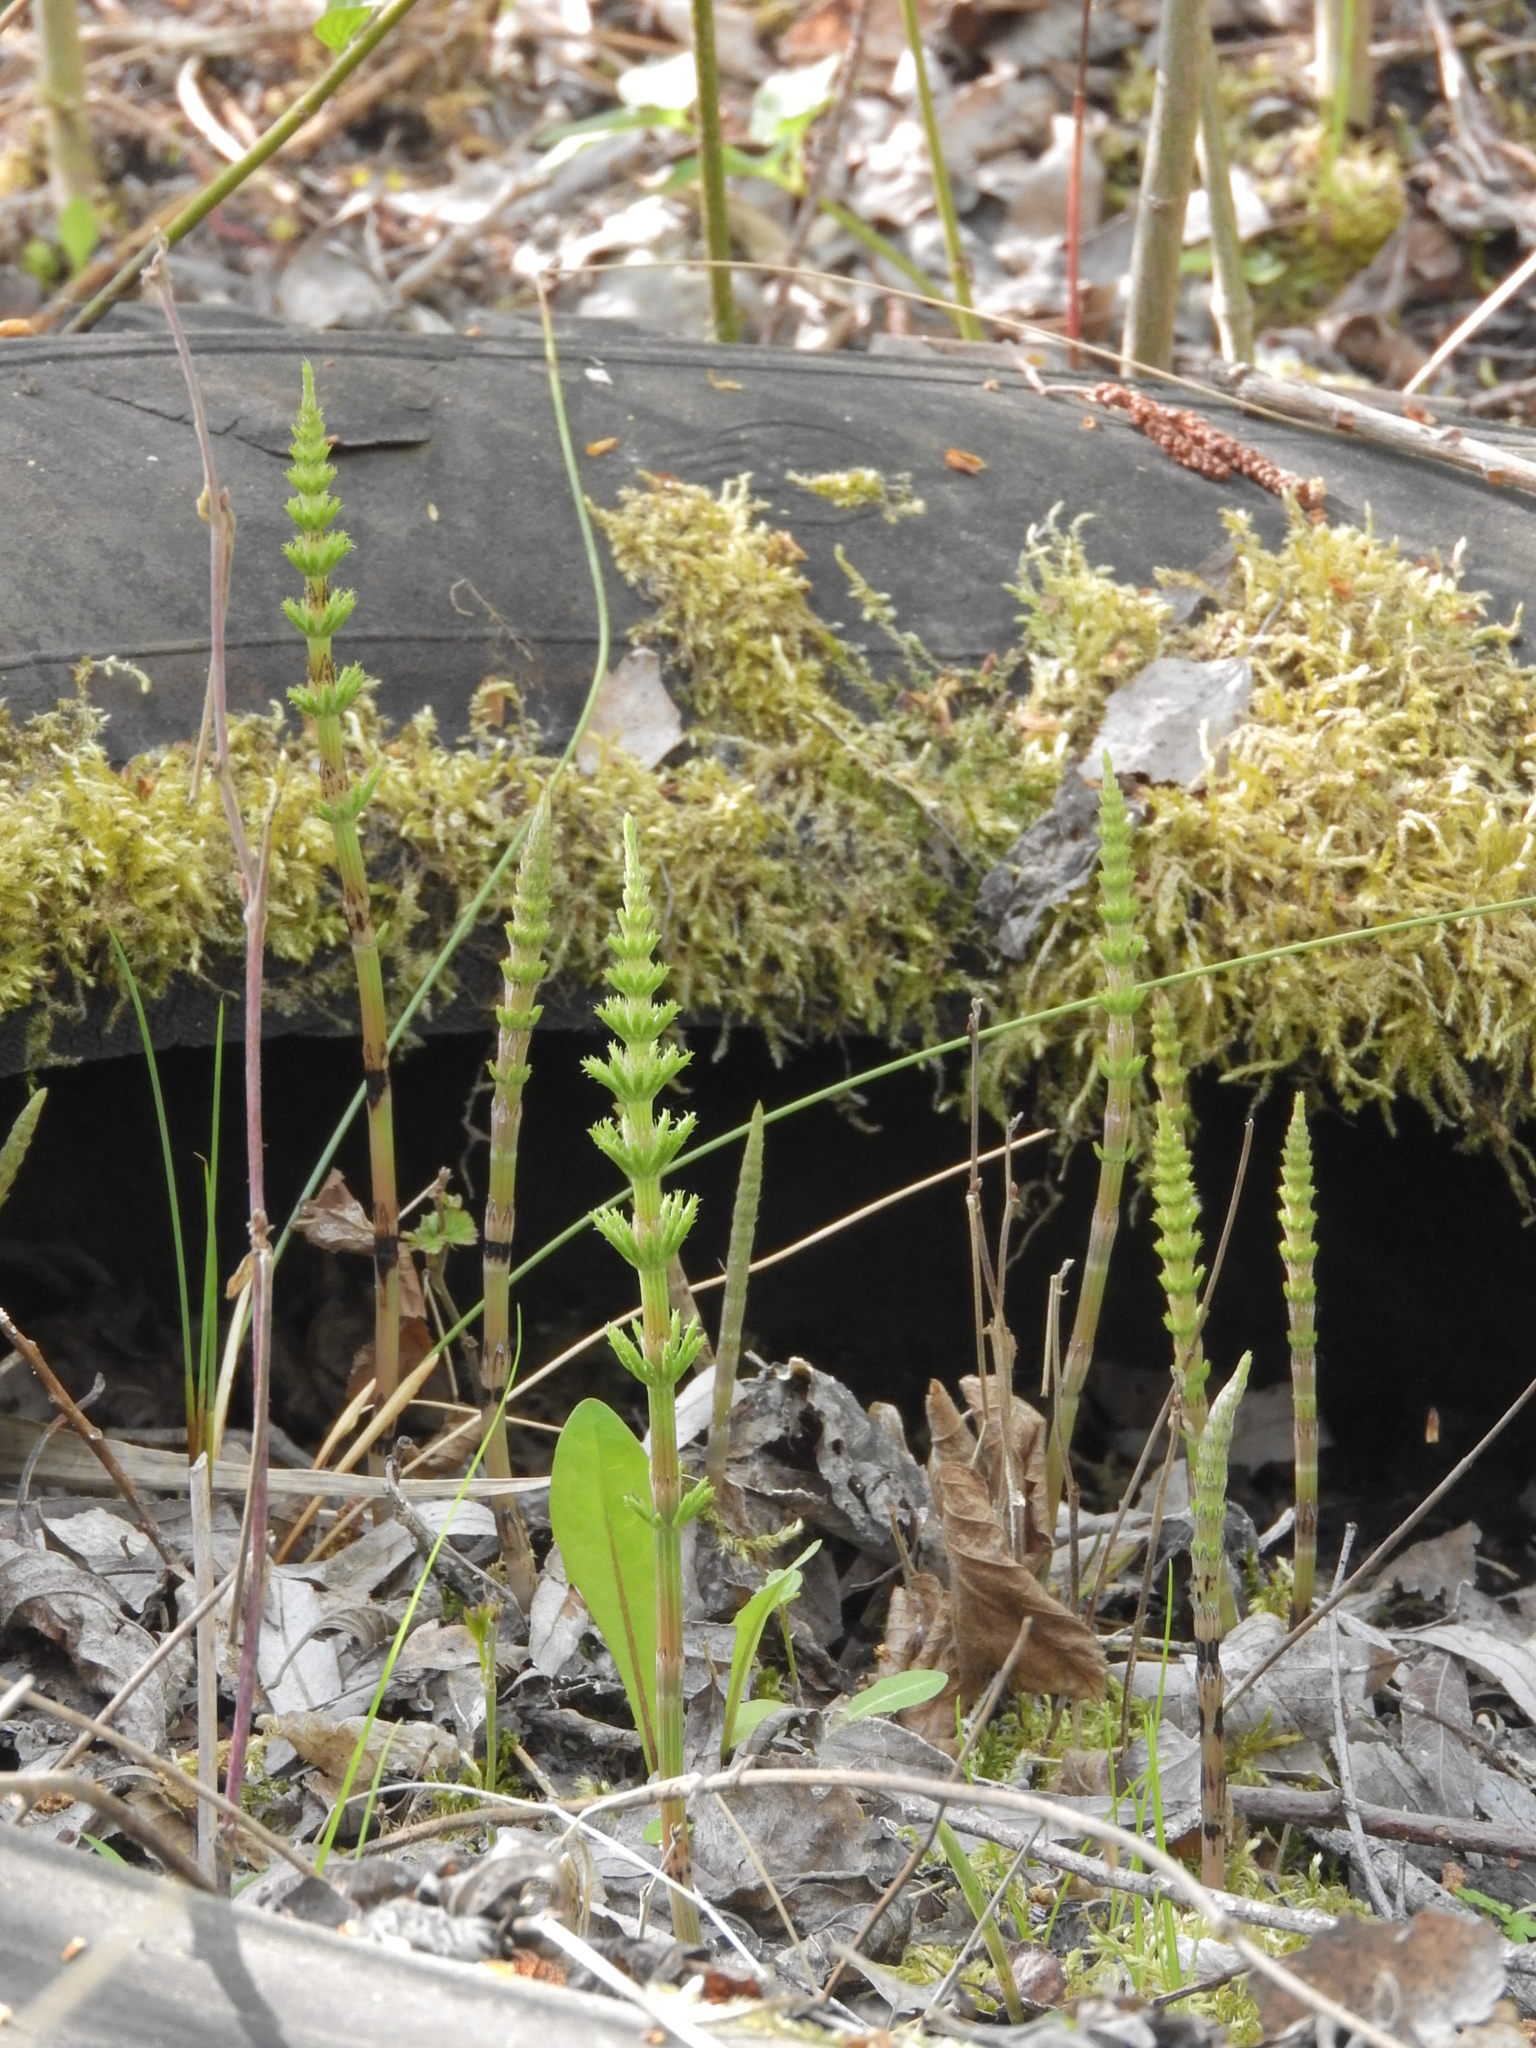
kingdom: Plantae
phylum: Tracheophyta
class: Polypodiopsida
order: Equisetales
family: Equisetaceae
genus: Equisetum
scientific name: Equisetum arvense
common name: Field horsetail
